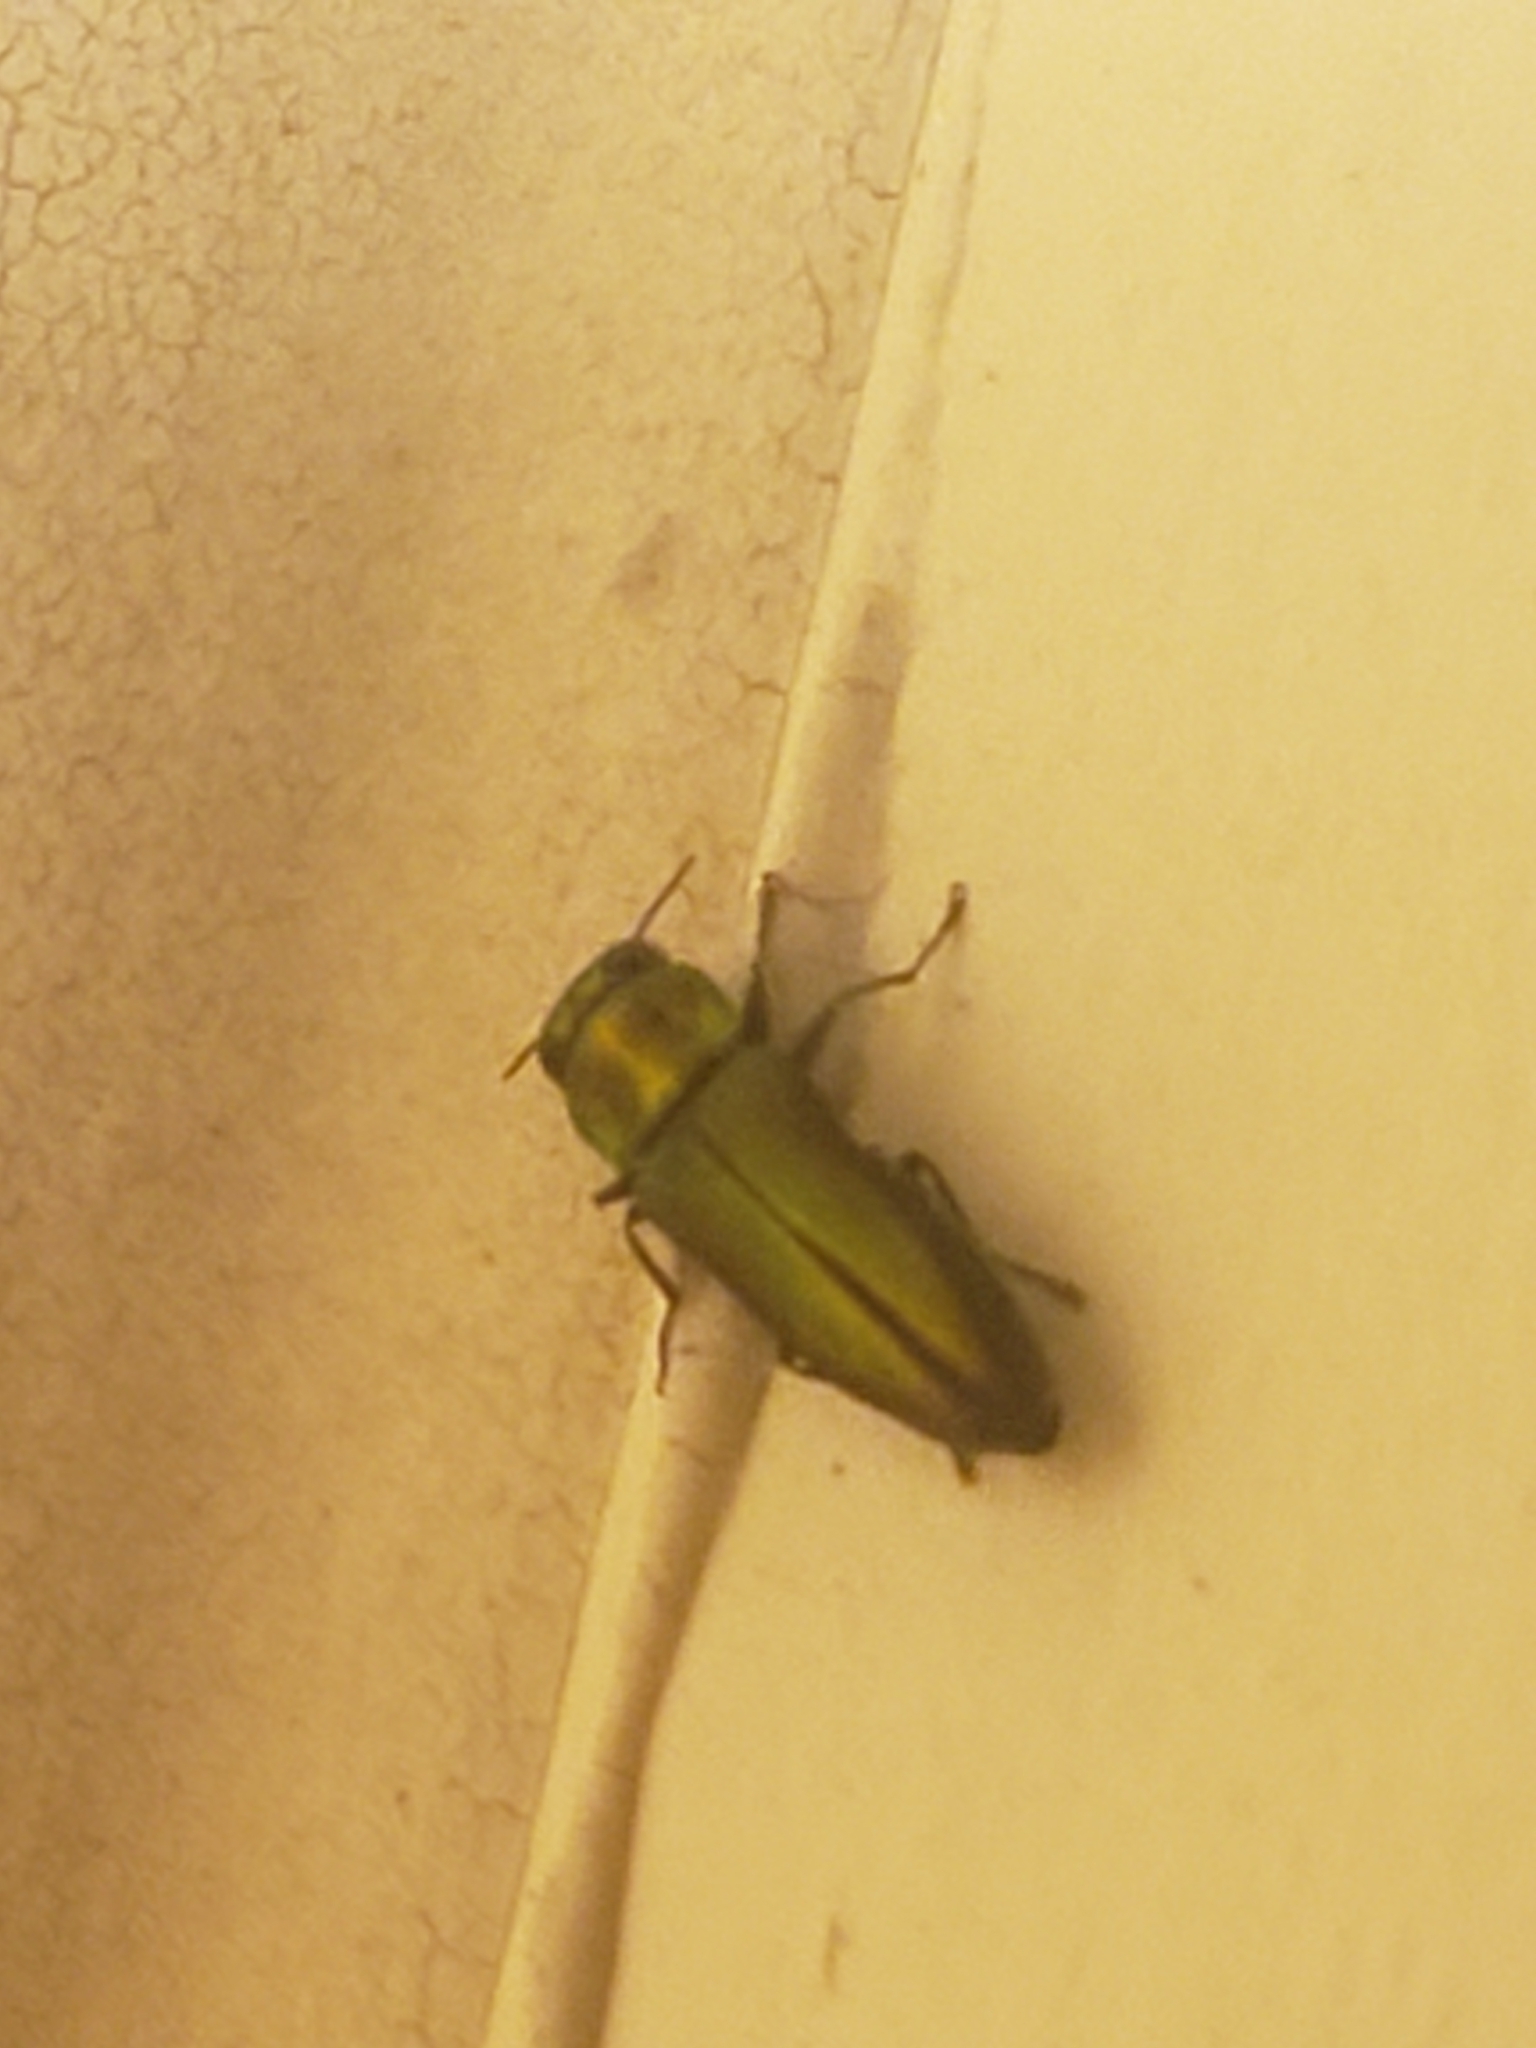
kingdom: Animalia
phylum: Arthropoda
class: Insecta
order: Coleoptera
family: Buprestidae
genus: Anthaxia
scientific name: Anthaxia quercata
